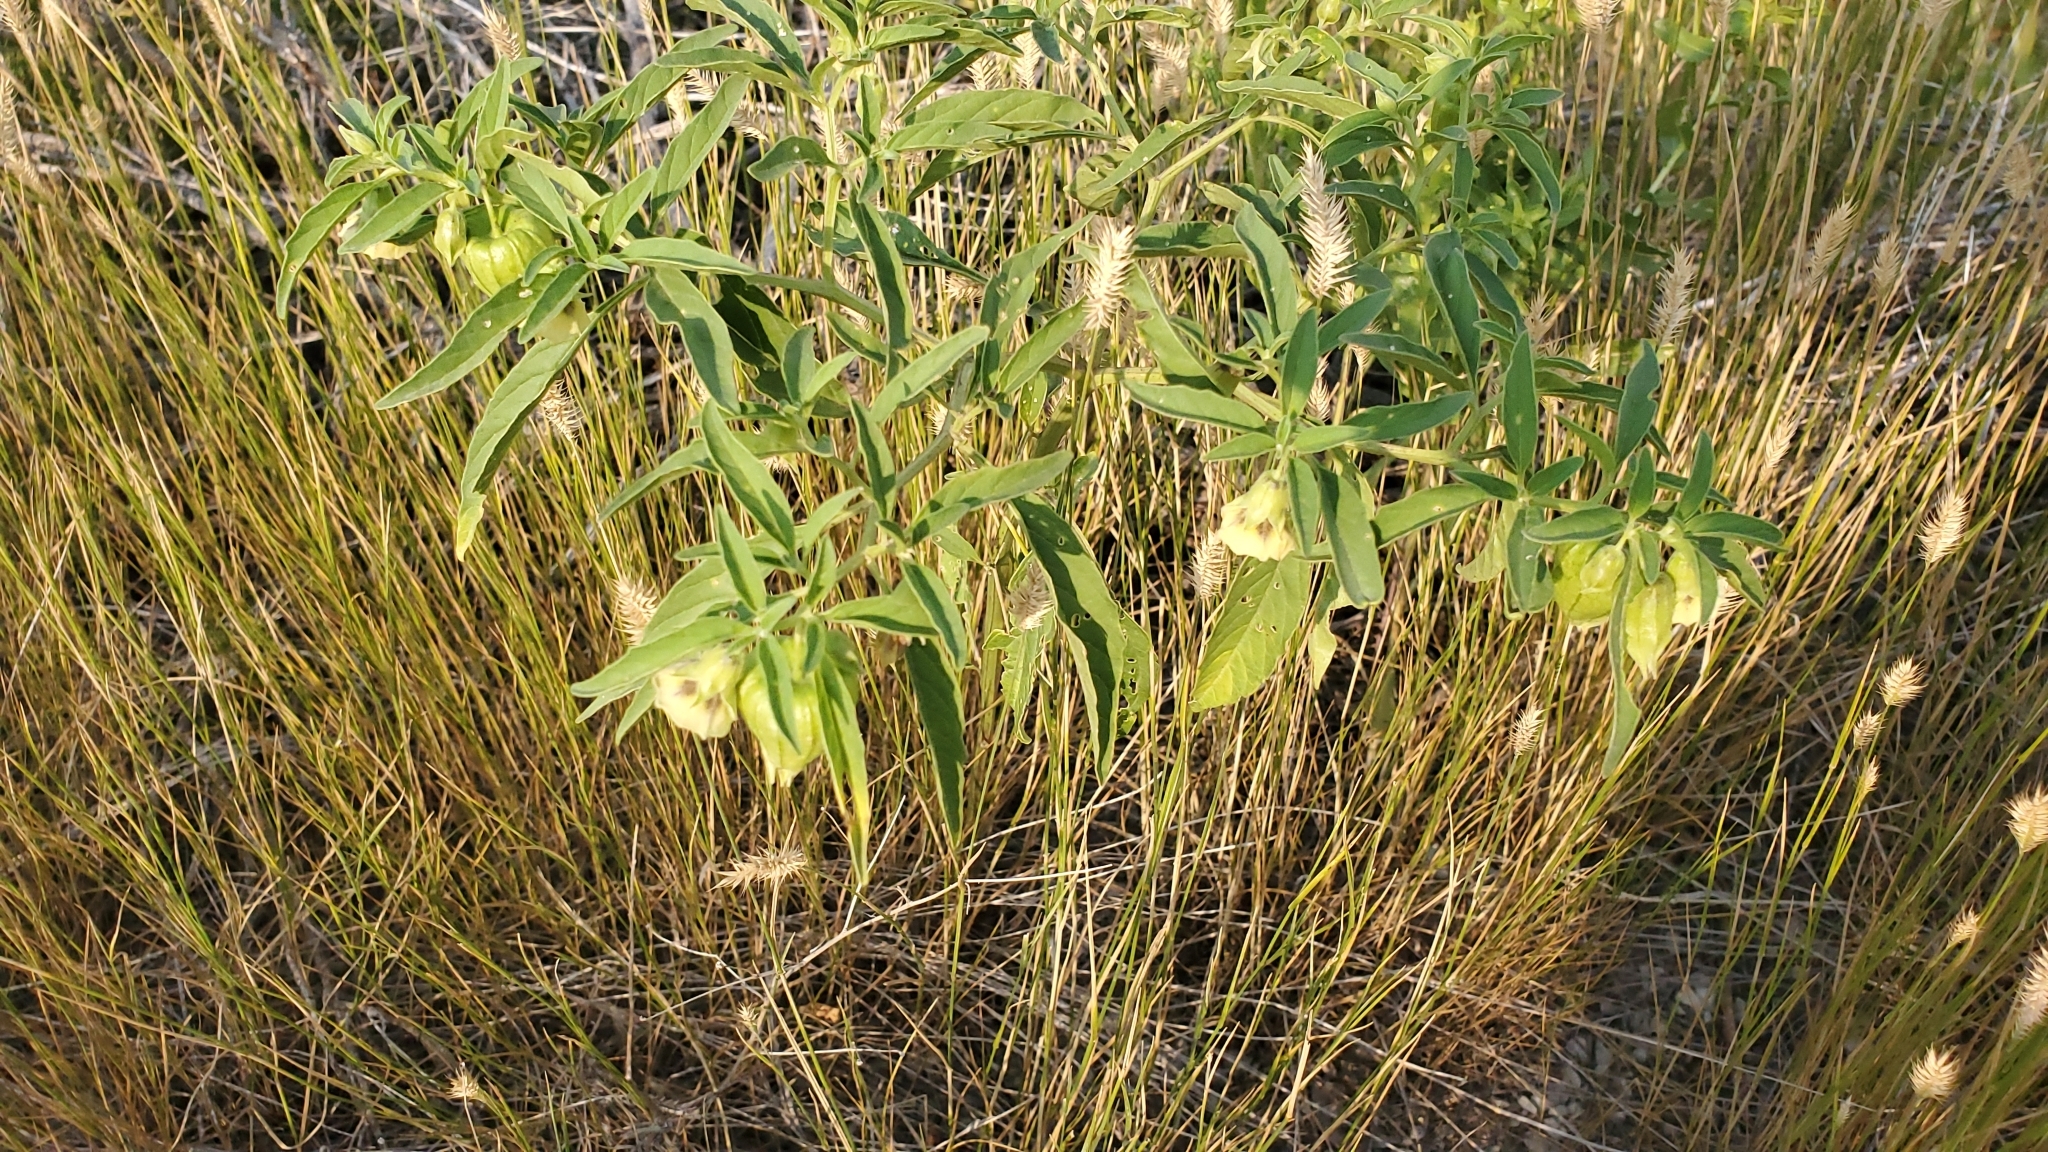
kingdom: Plantae
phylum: Tracheophyta
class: Magnoliopsida
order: Solanales
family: Solanaceae
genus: Physalis
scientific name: Physalis longifolia
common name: Common ground-cherry
